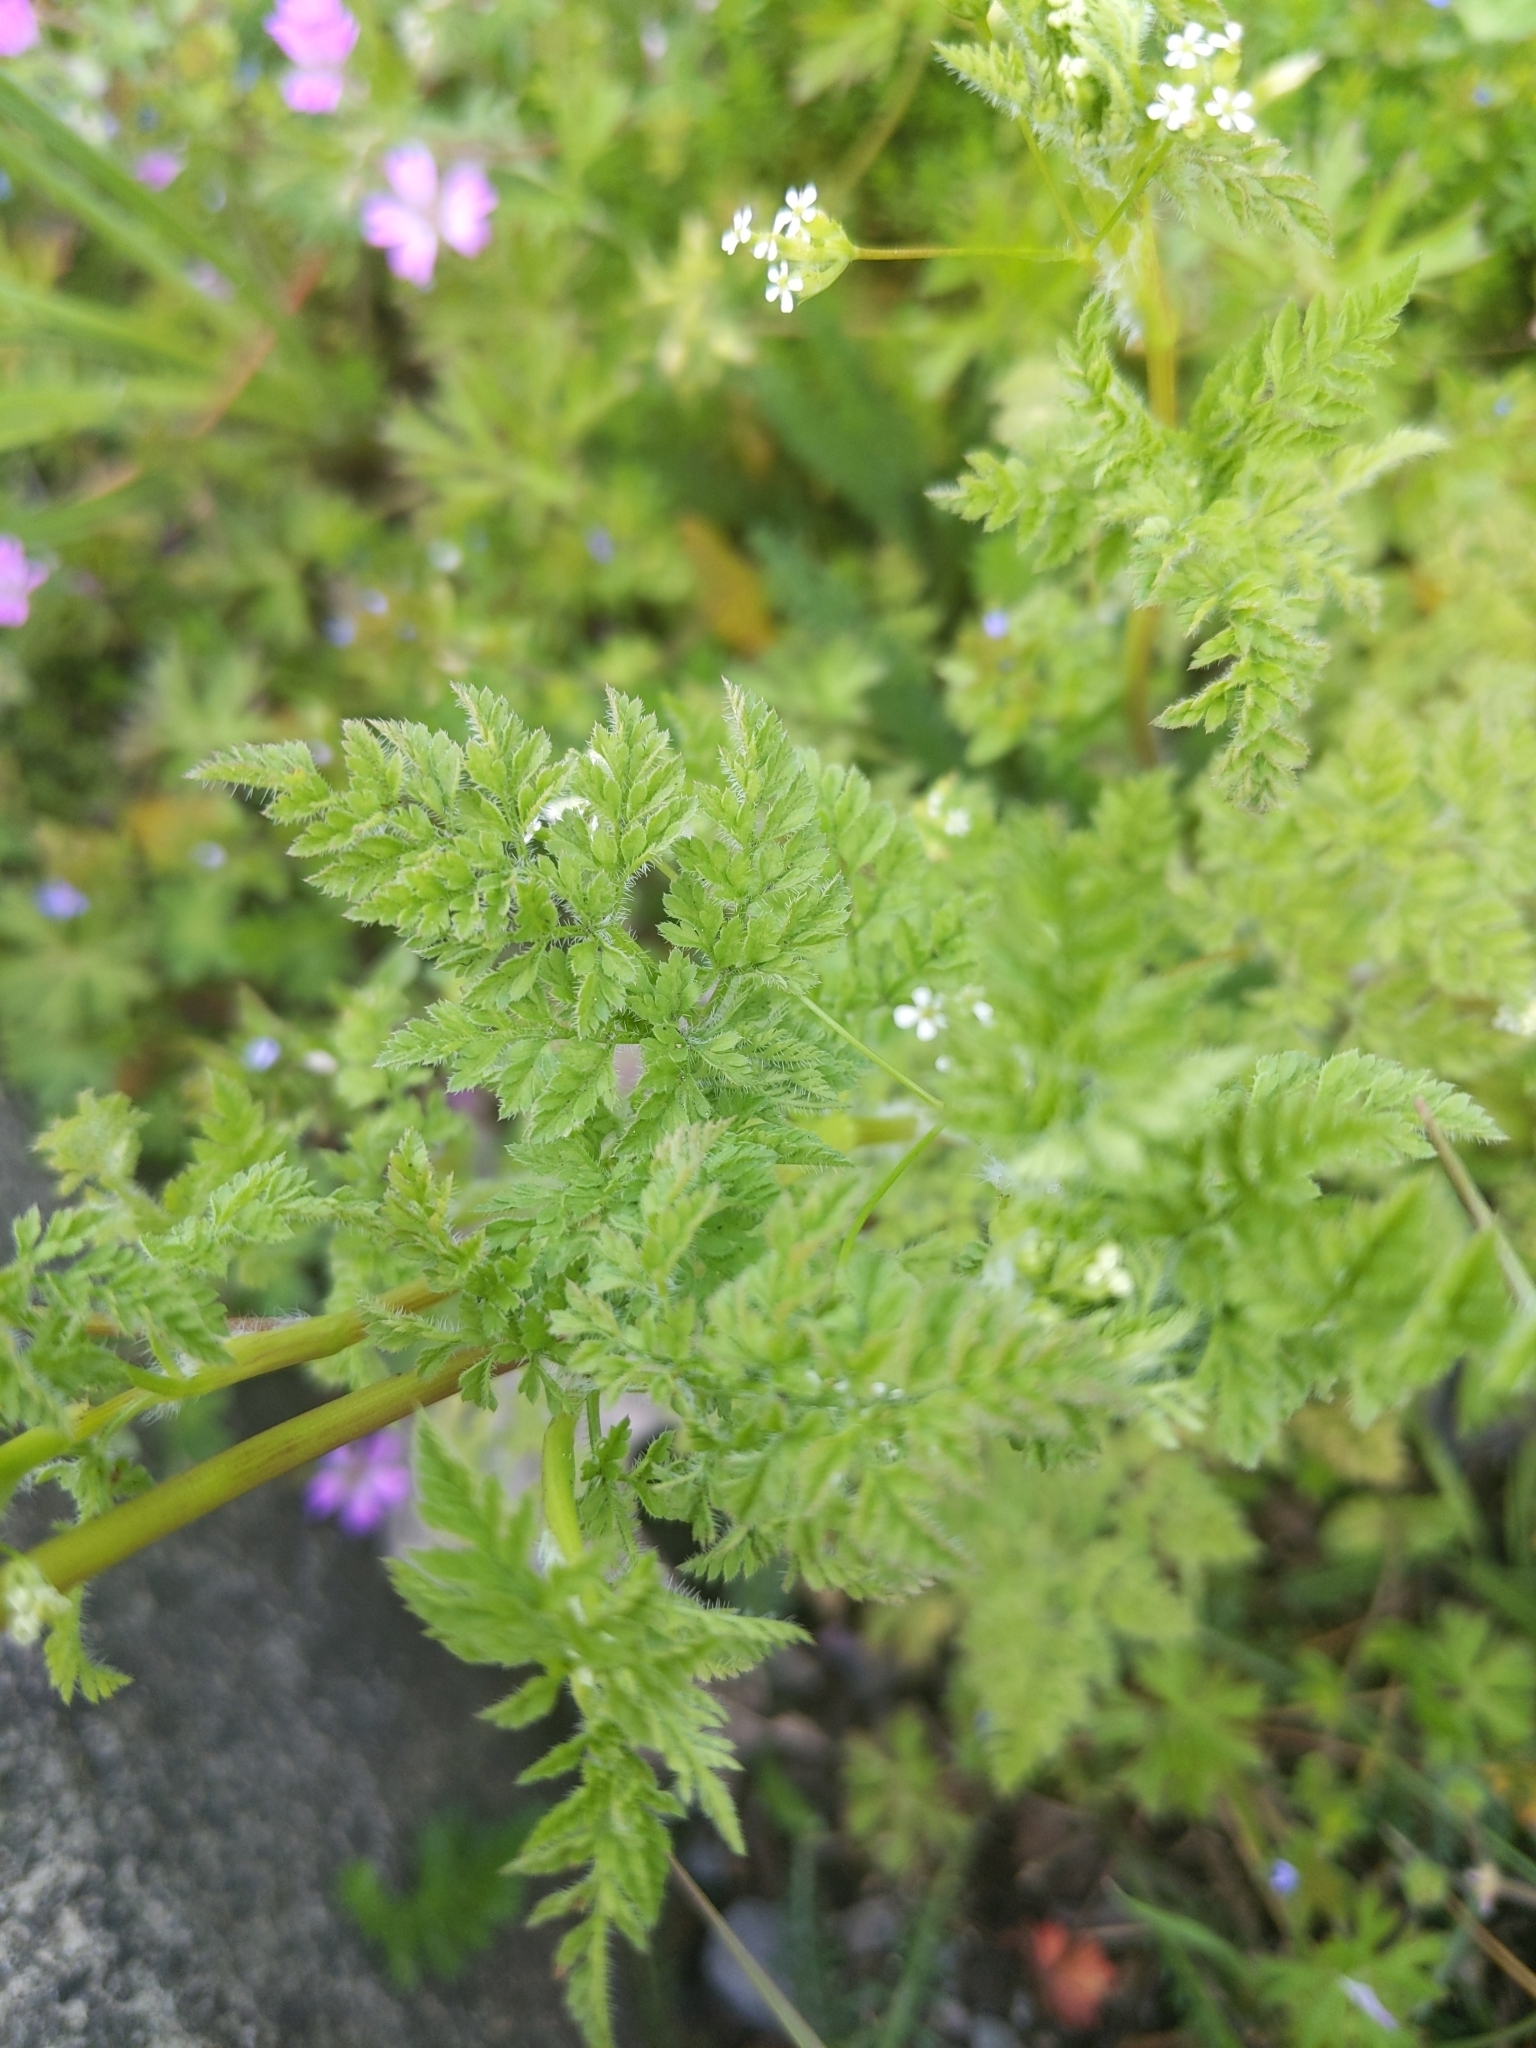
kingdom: Plantae
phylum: Tracheophyta
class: Magnoliopsida
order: Apiales
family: Apiaceae
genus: Anthriscus
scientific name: Anthriscus caucalis
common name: Bur chervil
